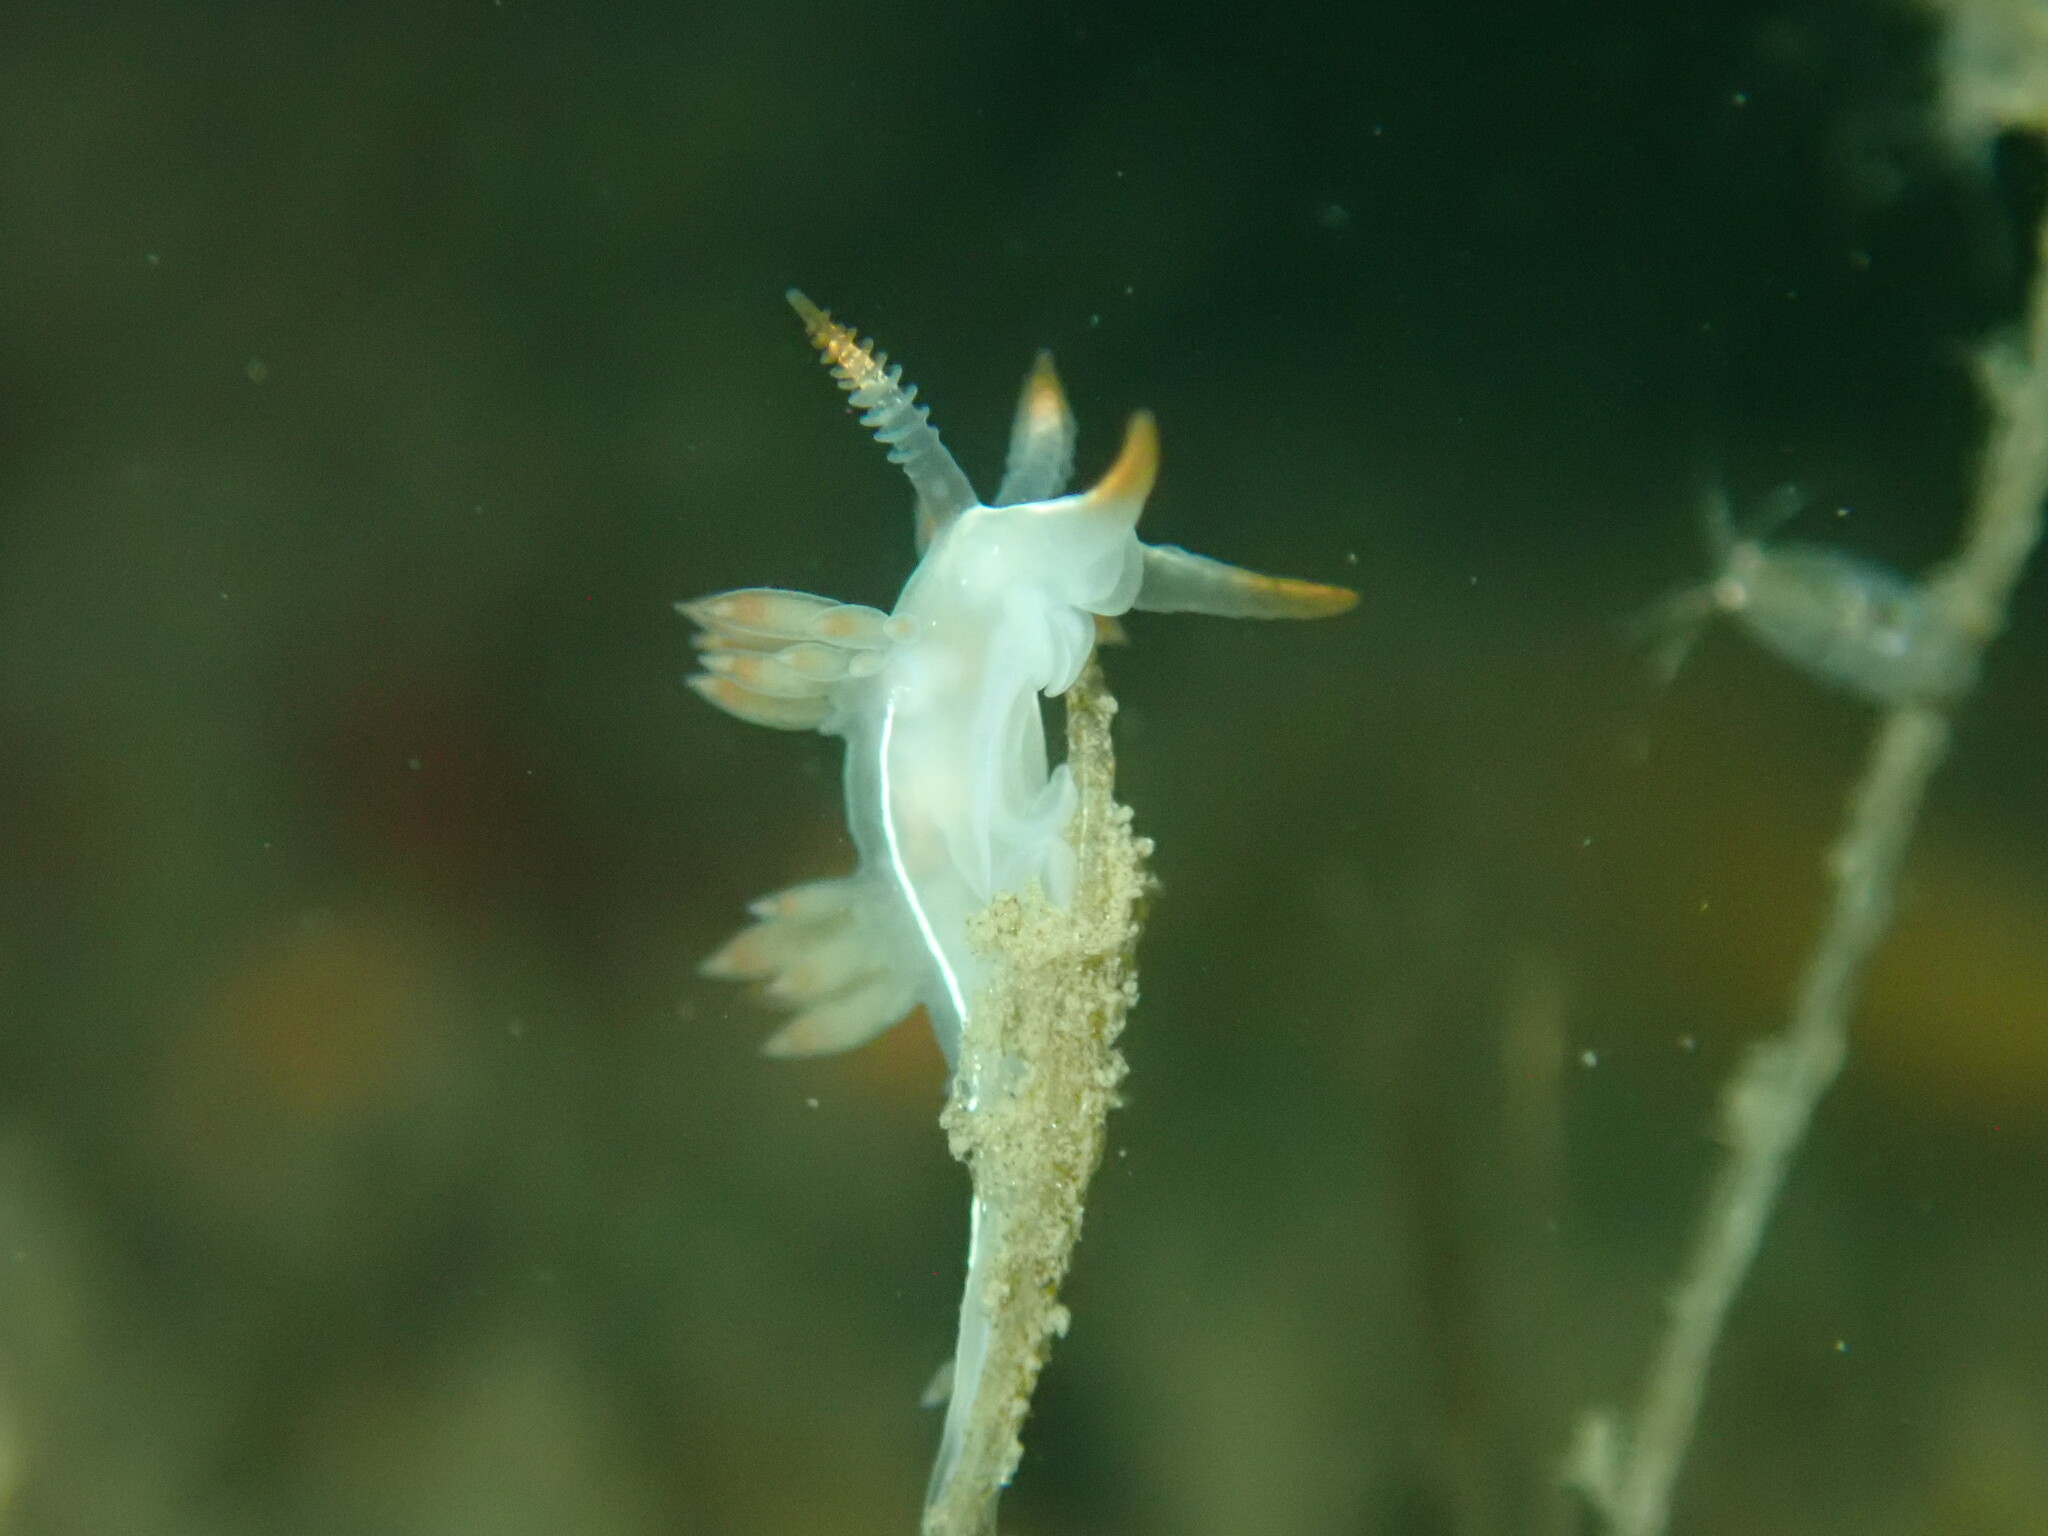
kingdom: Animalia
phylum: Mollusca
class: Gastropoda
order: Nudibranchia
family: Coryphellidae
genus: Coryphella
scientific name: Coryphella trilineata
